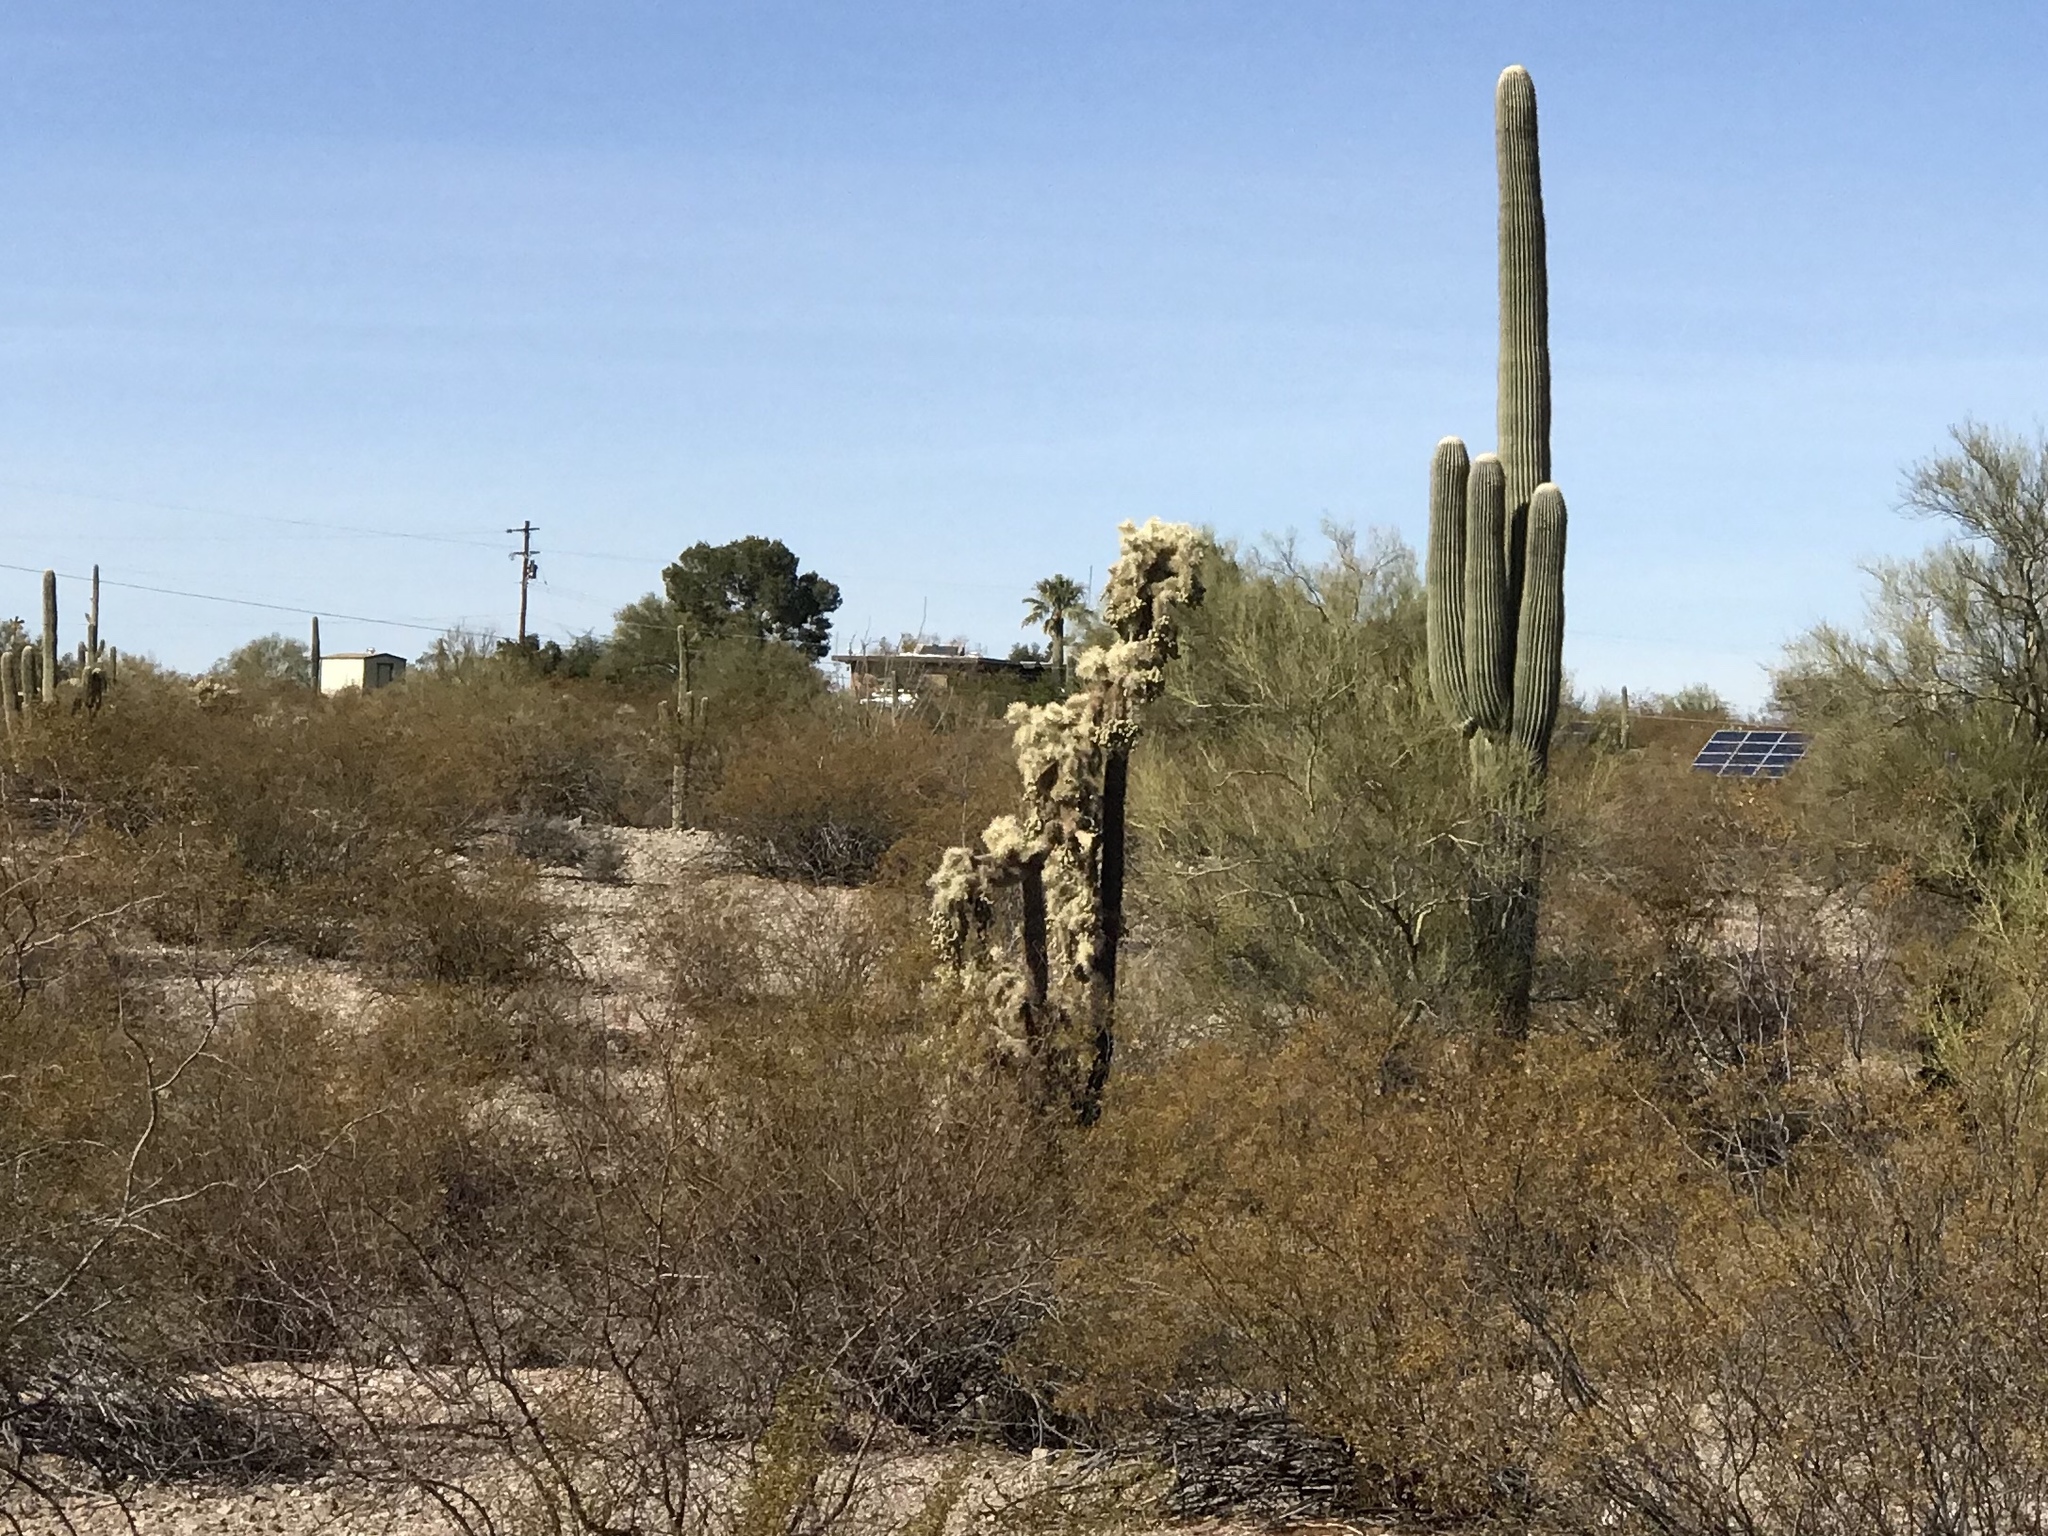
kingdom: Plantae
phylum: Tracheophyta
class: Magnoliopsida
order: Caryophyllales
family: Cactaceae
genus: Cylindropuntia
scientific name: Cylindropuntia fulgida
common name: Jumping cholla
